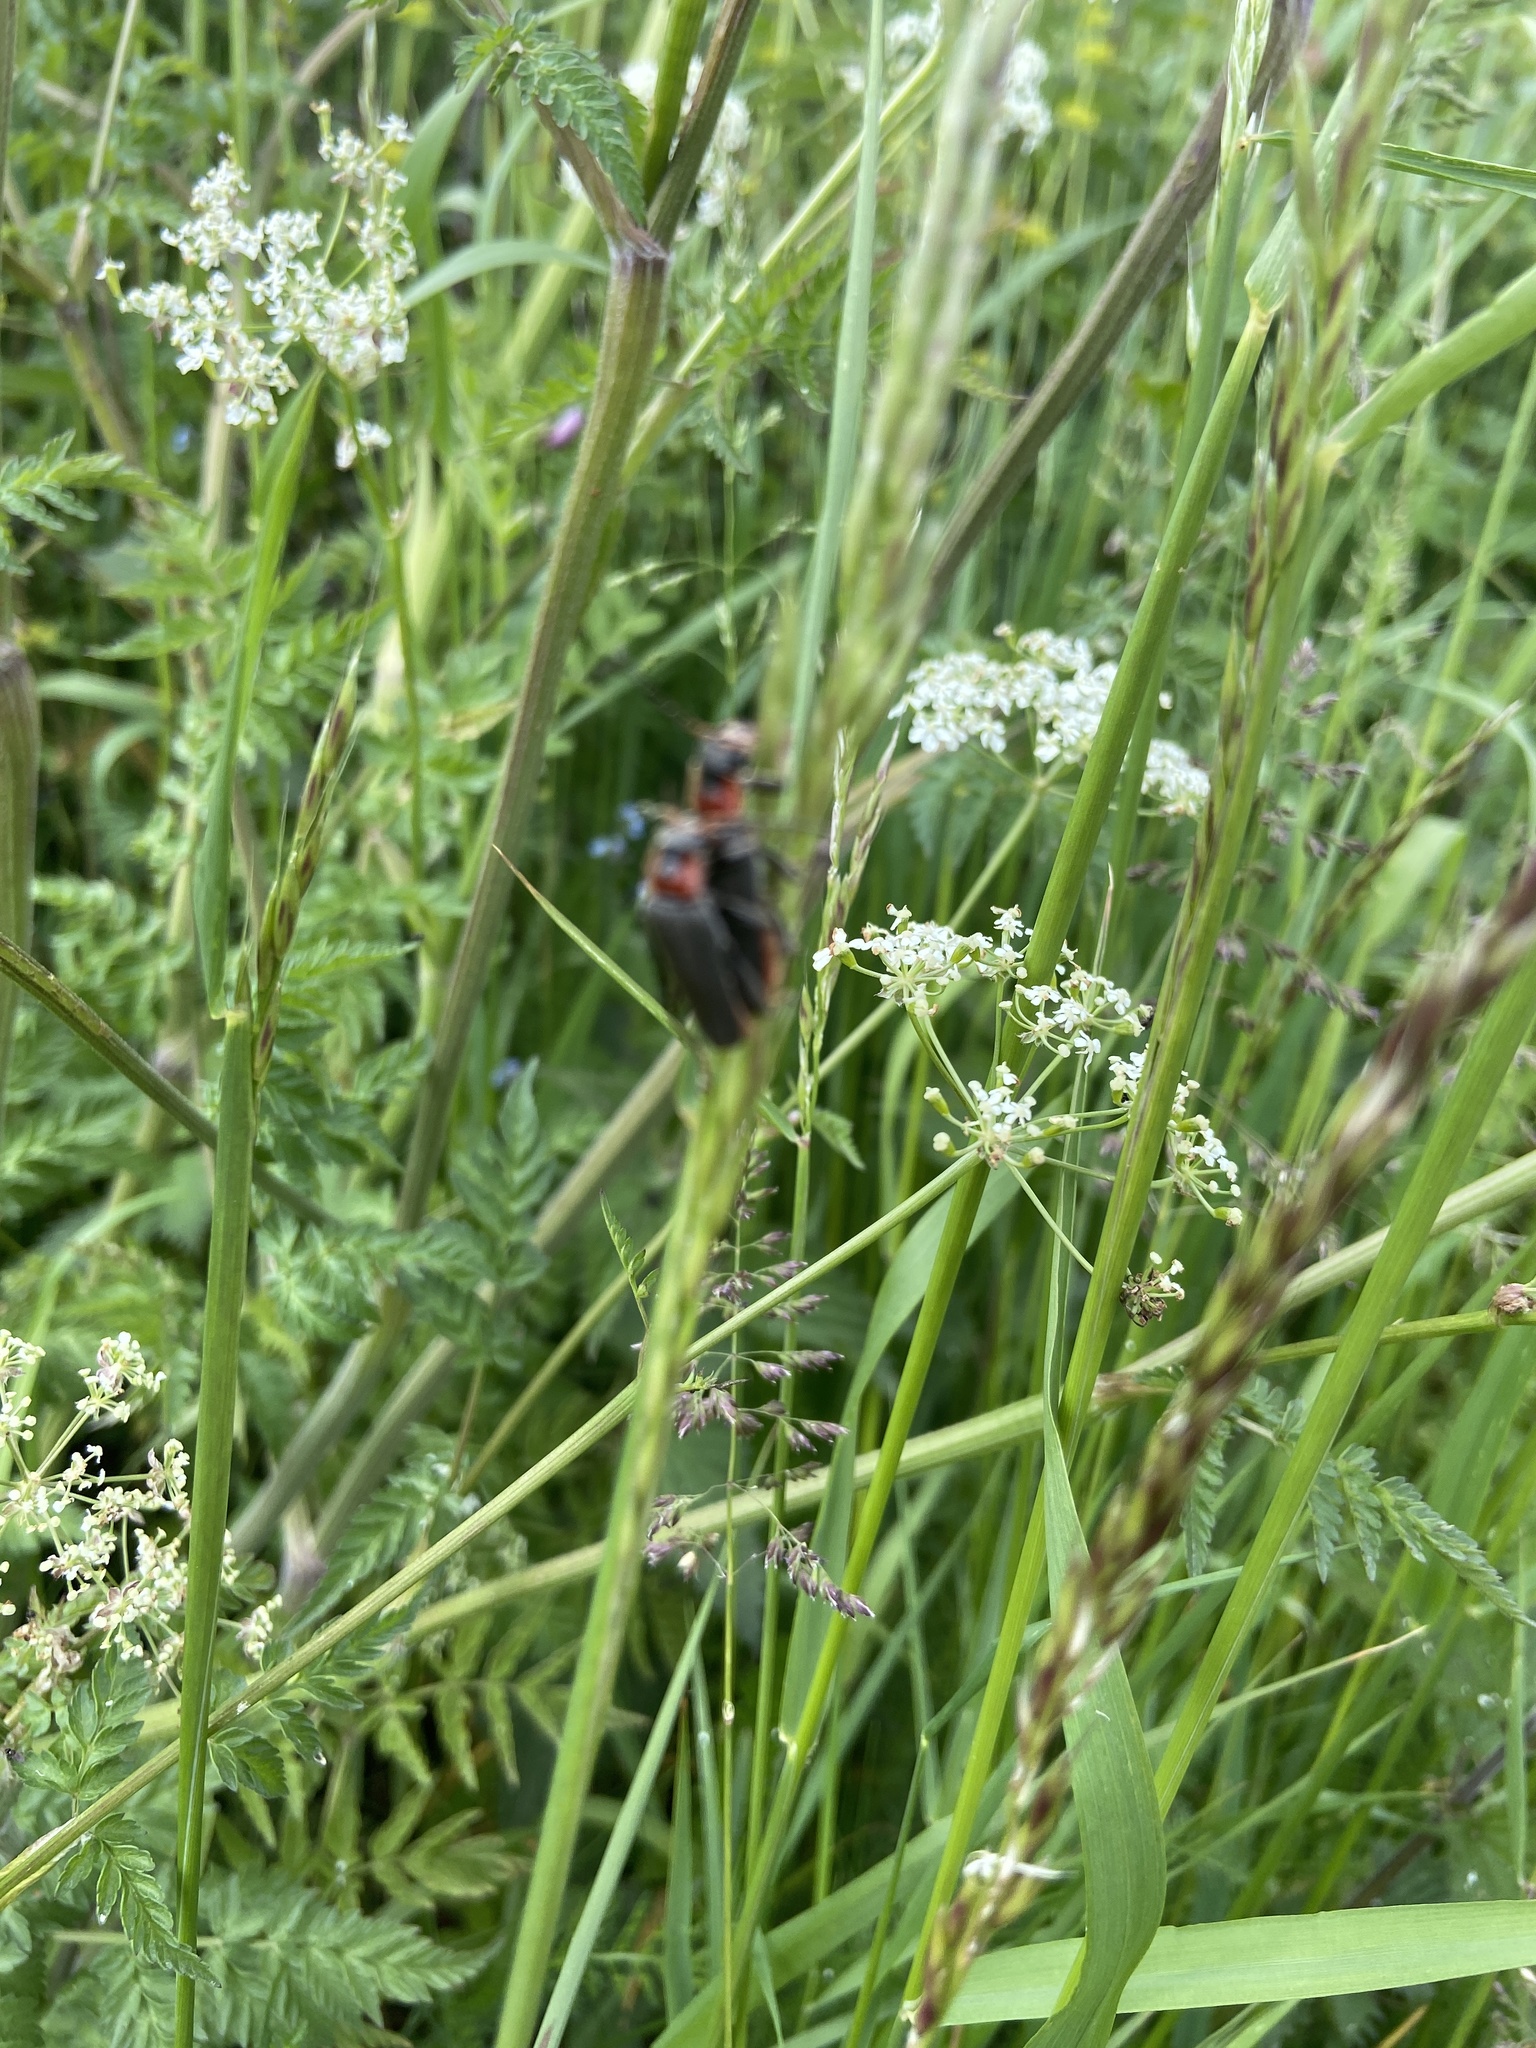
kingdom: Animalia
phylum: Arthropoda
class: Insecta
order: Coleoptera
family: Cantharidae
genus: Cantharis
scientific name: Cantharis fusca
